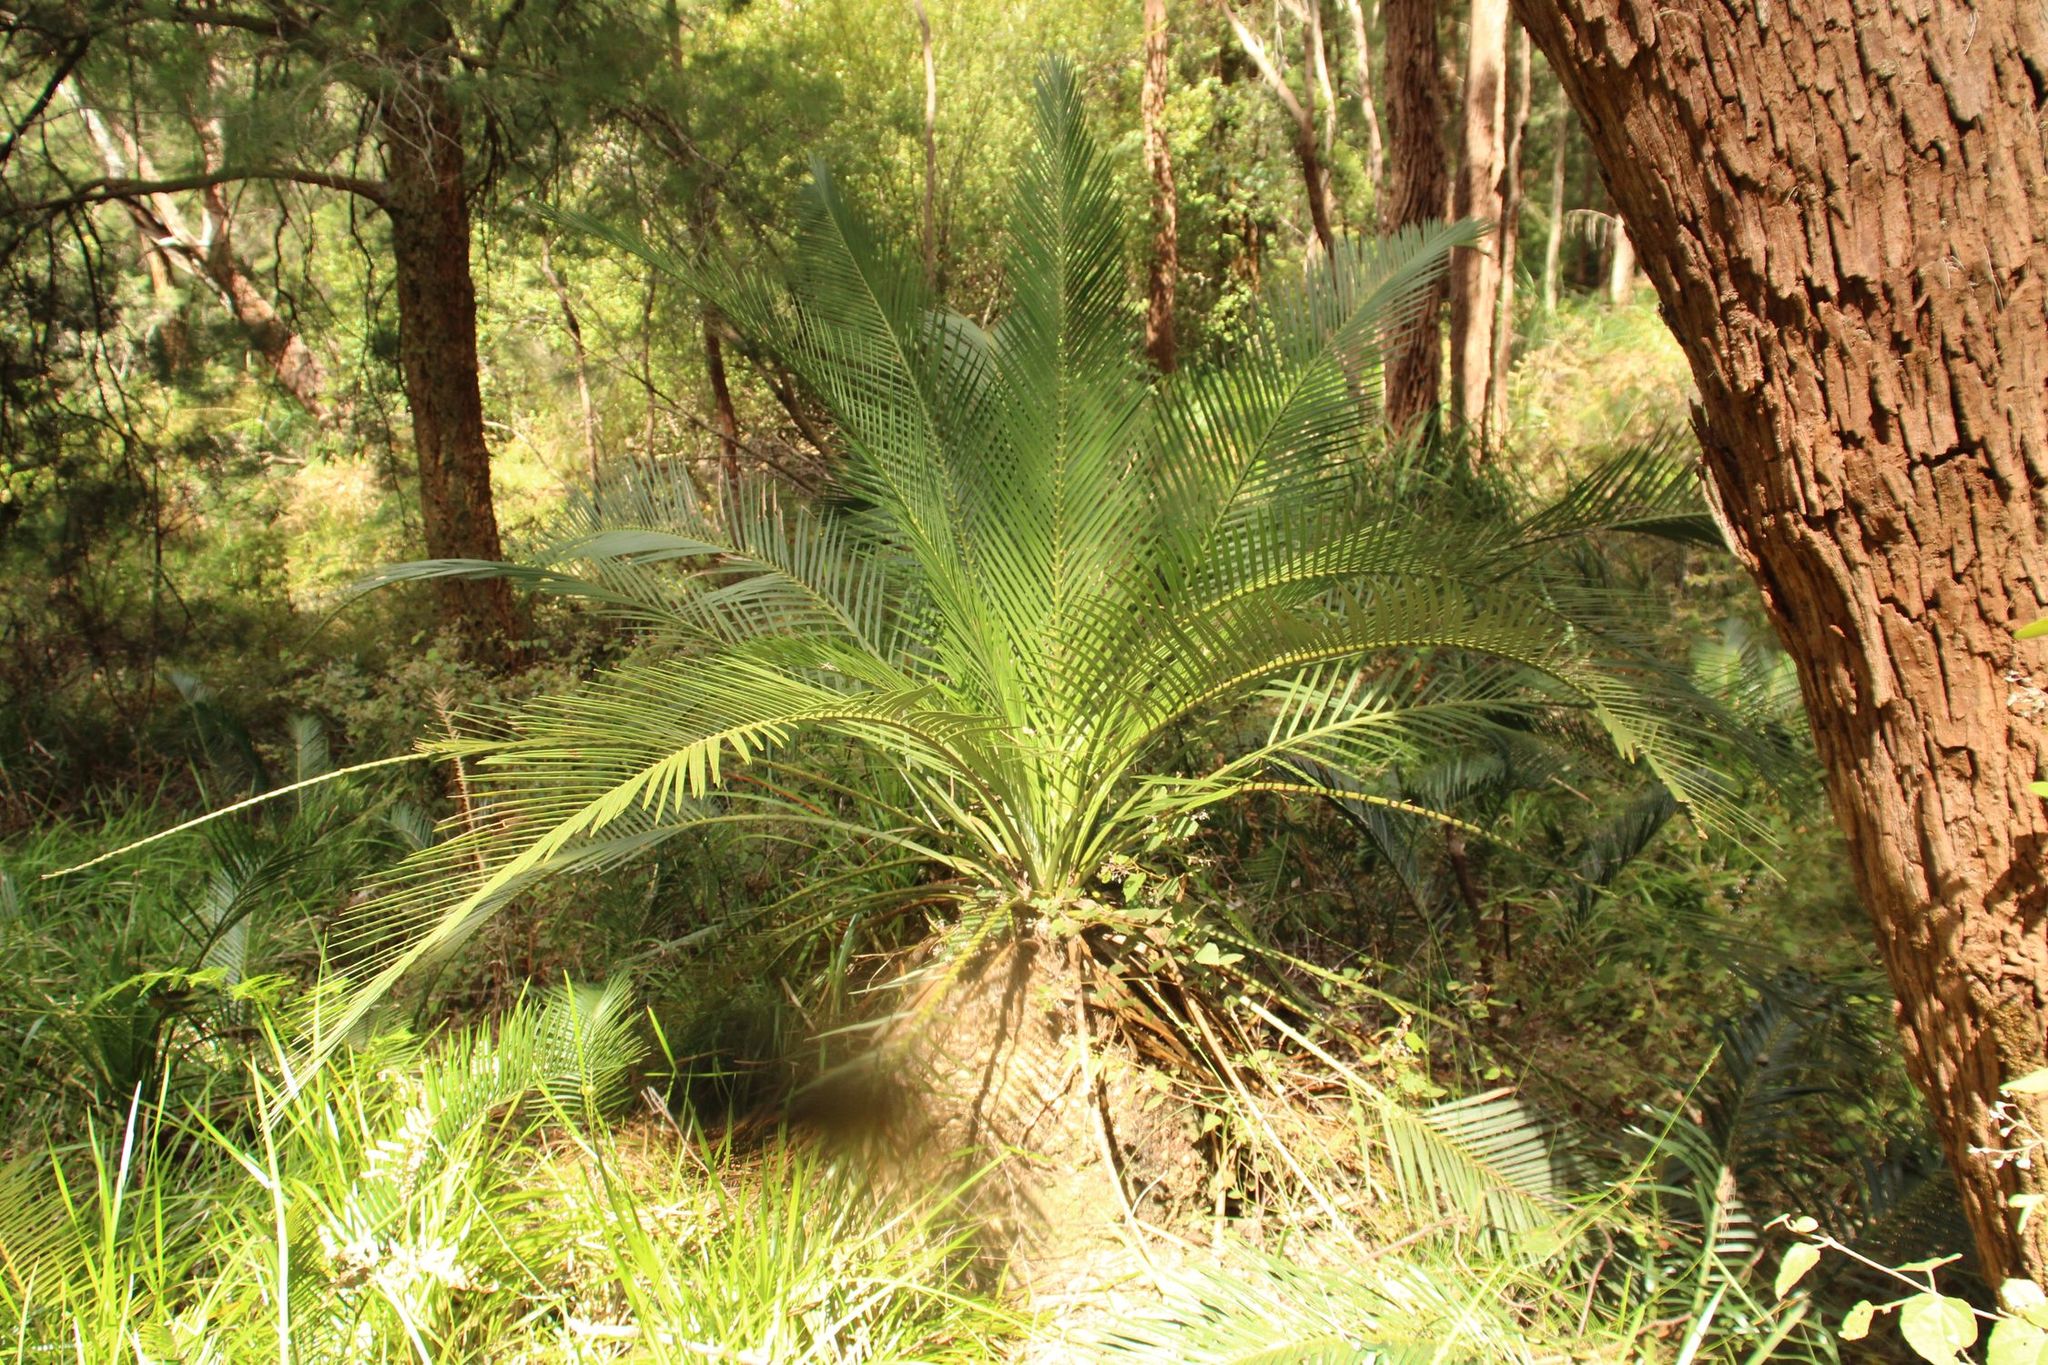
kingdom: Plantae
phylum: Tracheophyta
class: Cycadopsida
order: Cycadales
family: Zamiaceae
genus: Macrozamia
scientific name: Macrozamia riedlei
